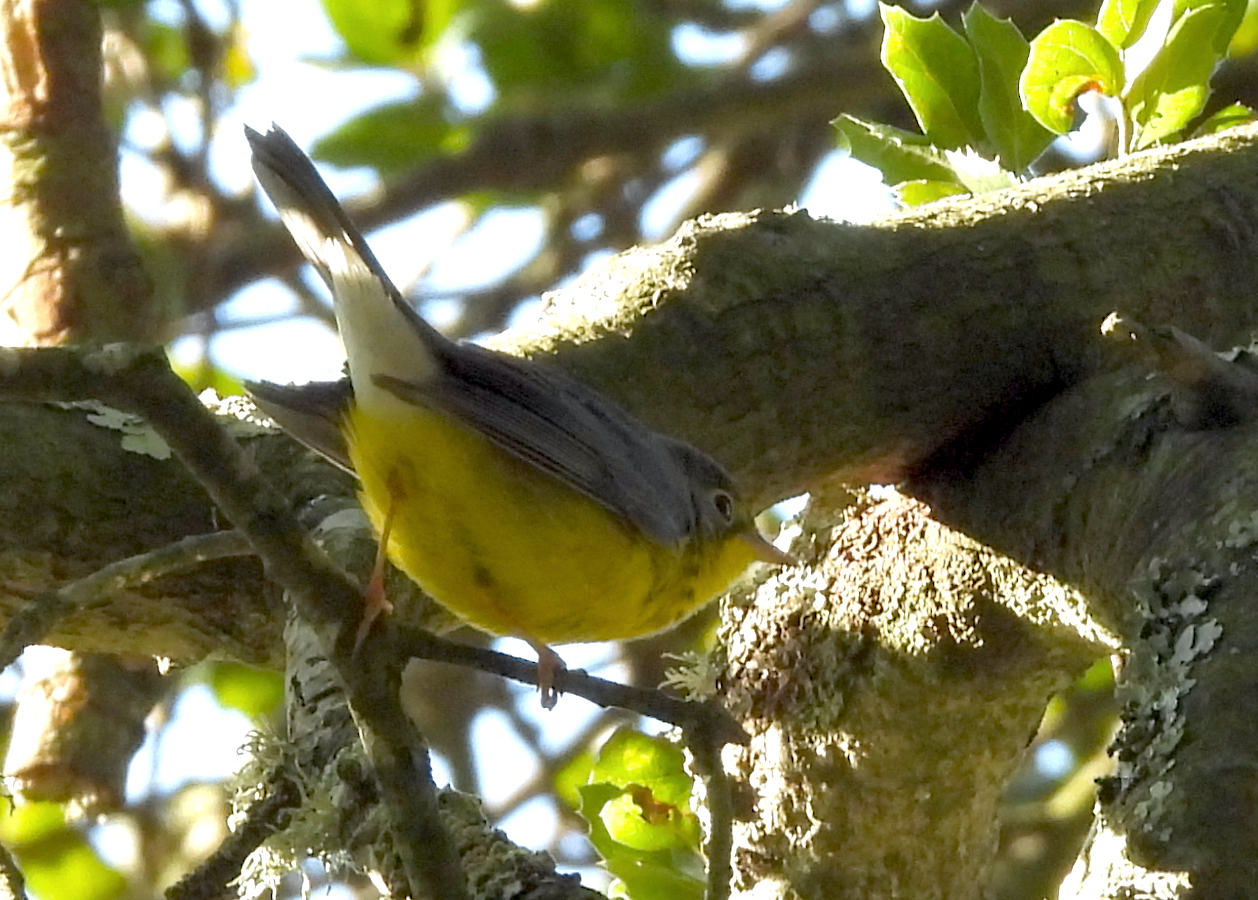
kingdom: Animalia
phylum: Chordata
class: Aves
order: Passeriformes
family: Parulidae
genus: Cardellina
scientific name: Cardellina canadensis
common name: Canada warbler
